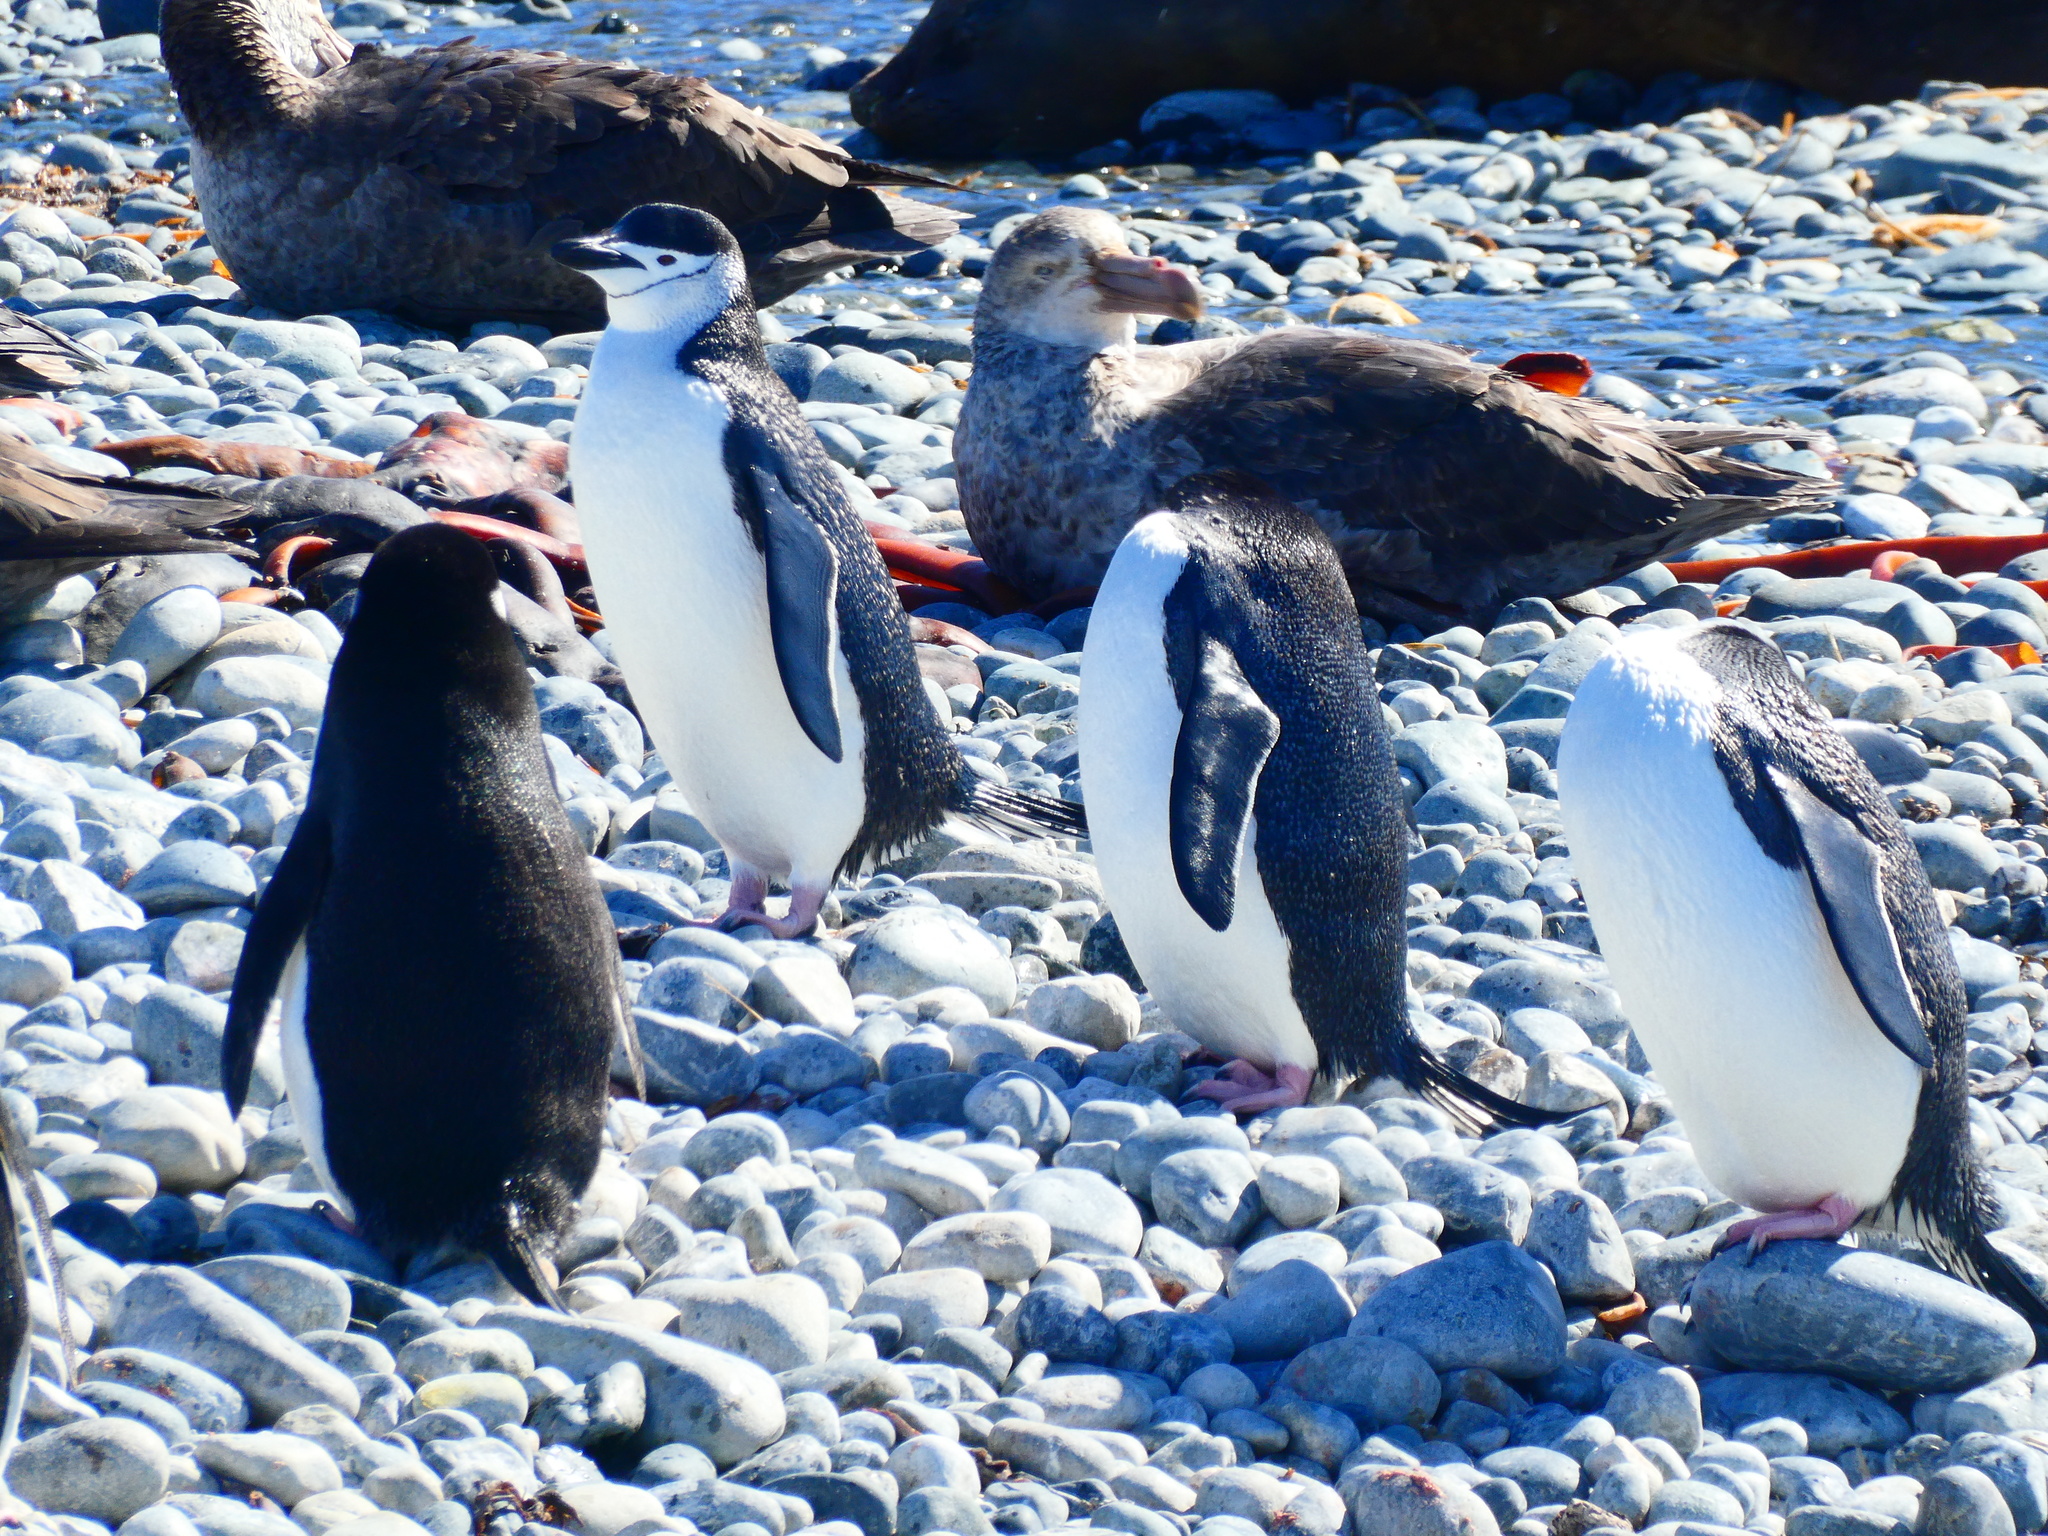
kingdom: Animalia
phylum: Chordata
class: Aves
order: Sphenisciformes
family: Spheniscidae
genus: Pygoscelis
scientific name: Pygoscelis antarcticus
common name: Chinstrap penguin
